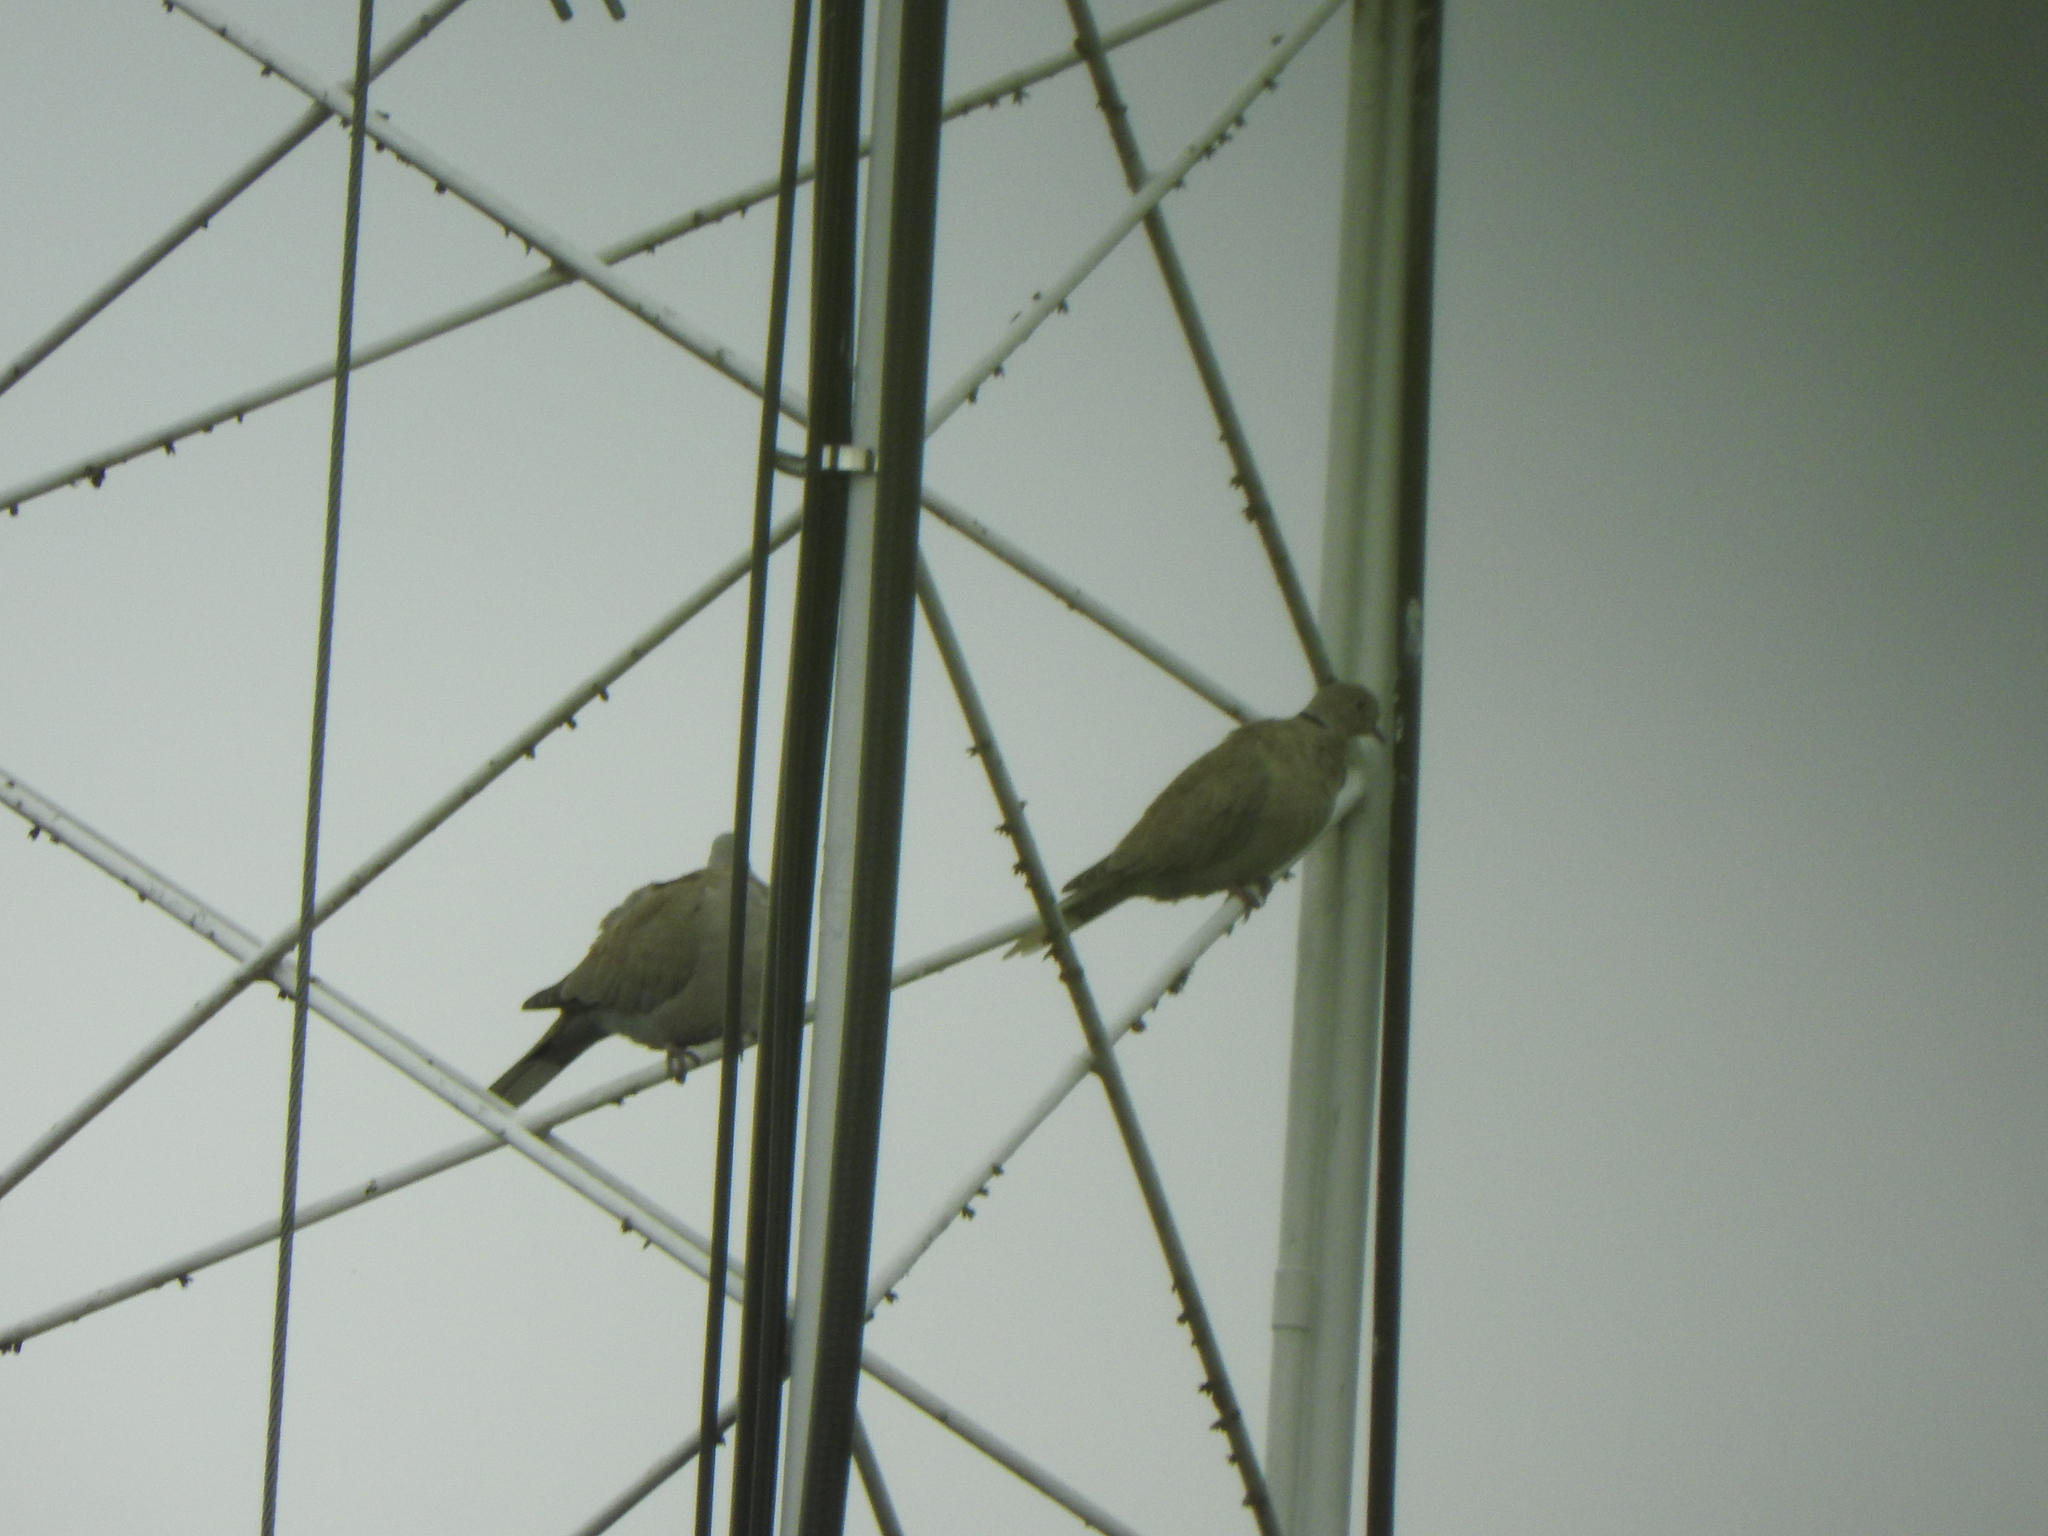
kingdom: Animalia
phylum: Chordata
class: Aves
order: Columbiformes
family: Columbidae
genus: Streptopelia
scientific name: Streptopelia decaocto
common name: Eurasian collared dove
